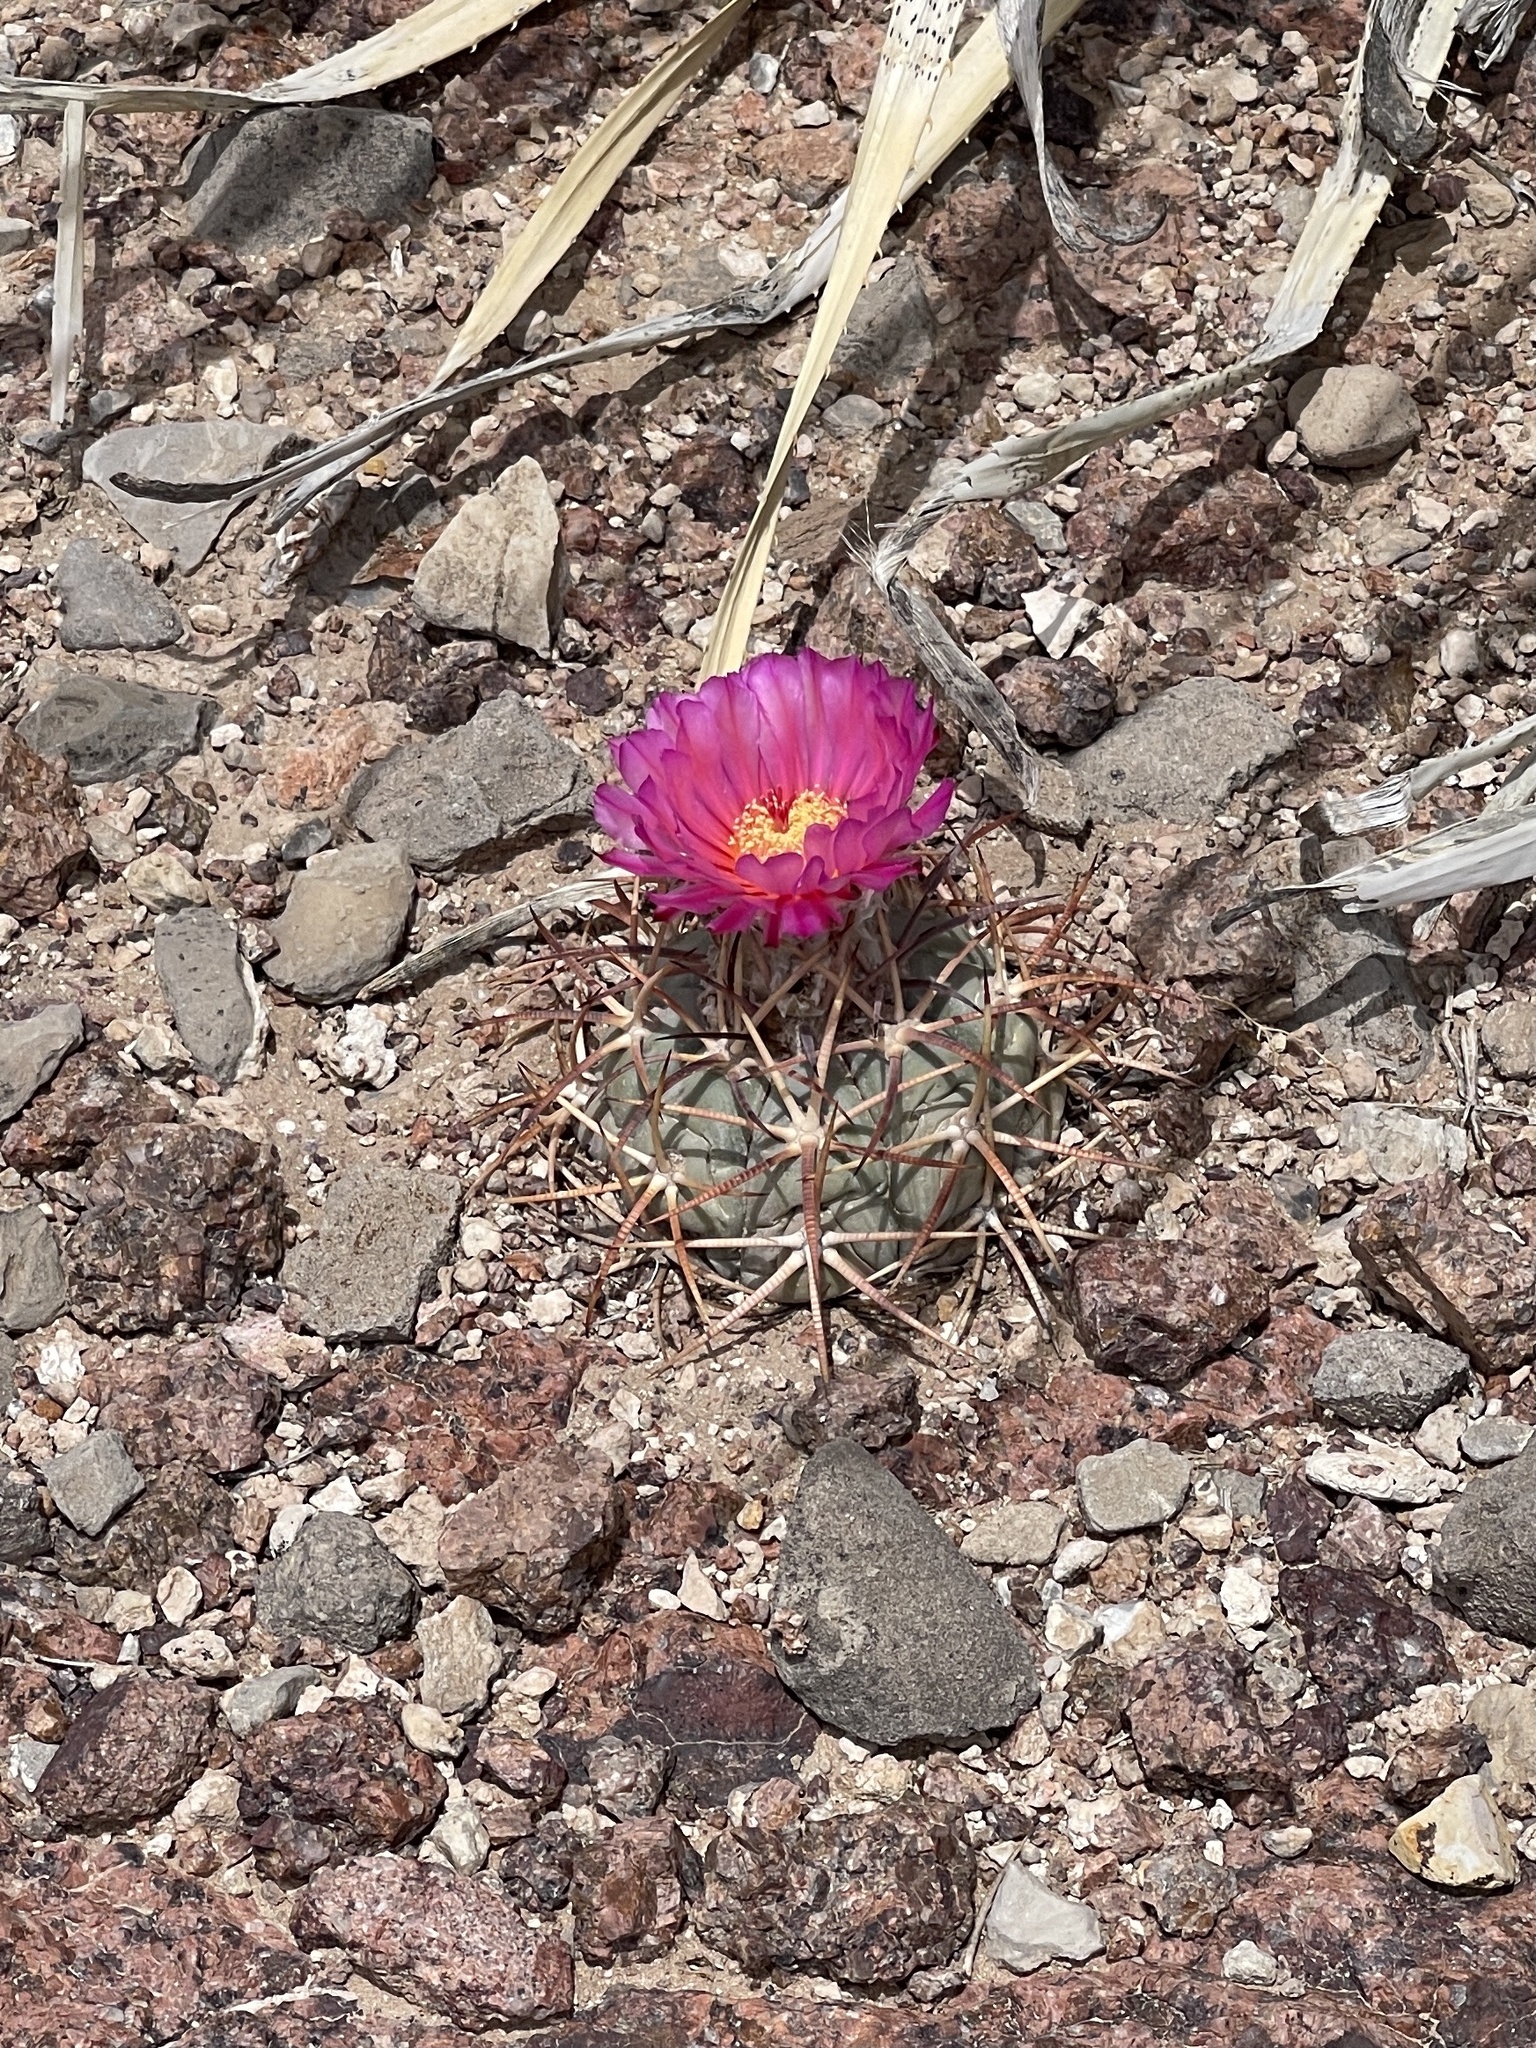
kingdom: Plantae
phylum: Tracheophyta
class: Magnoliopsida
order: Caryophyllales
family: Cactaceae
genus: Echinocactus
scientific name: Echinocactus horizonthalonius
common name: Devilshead
